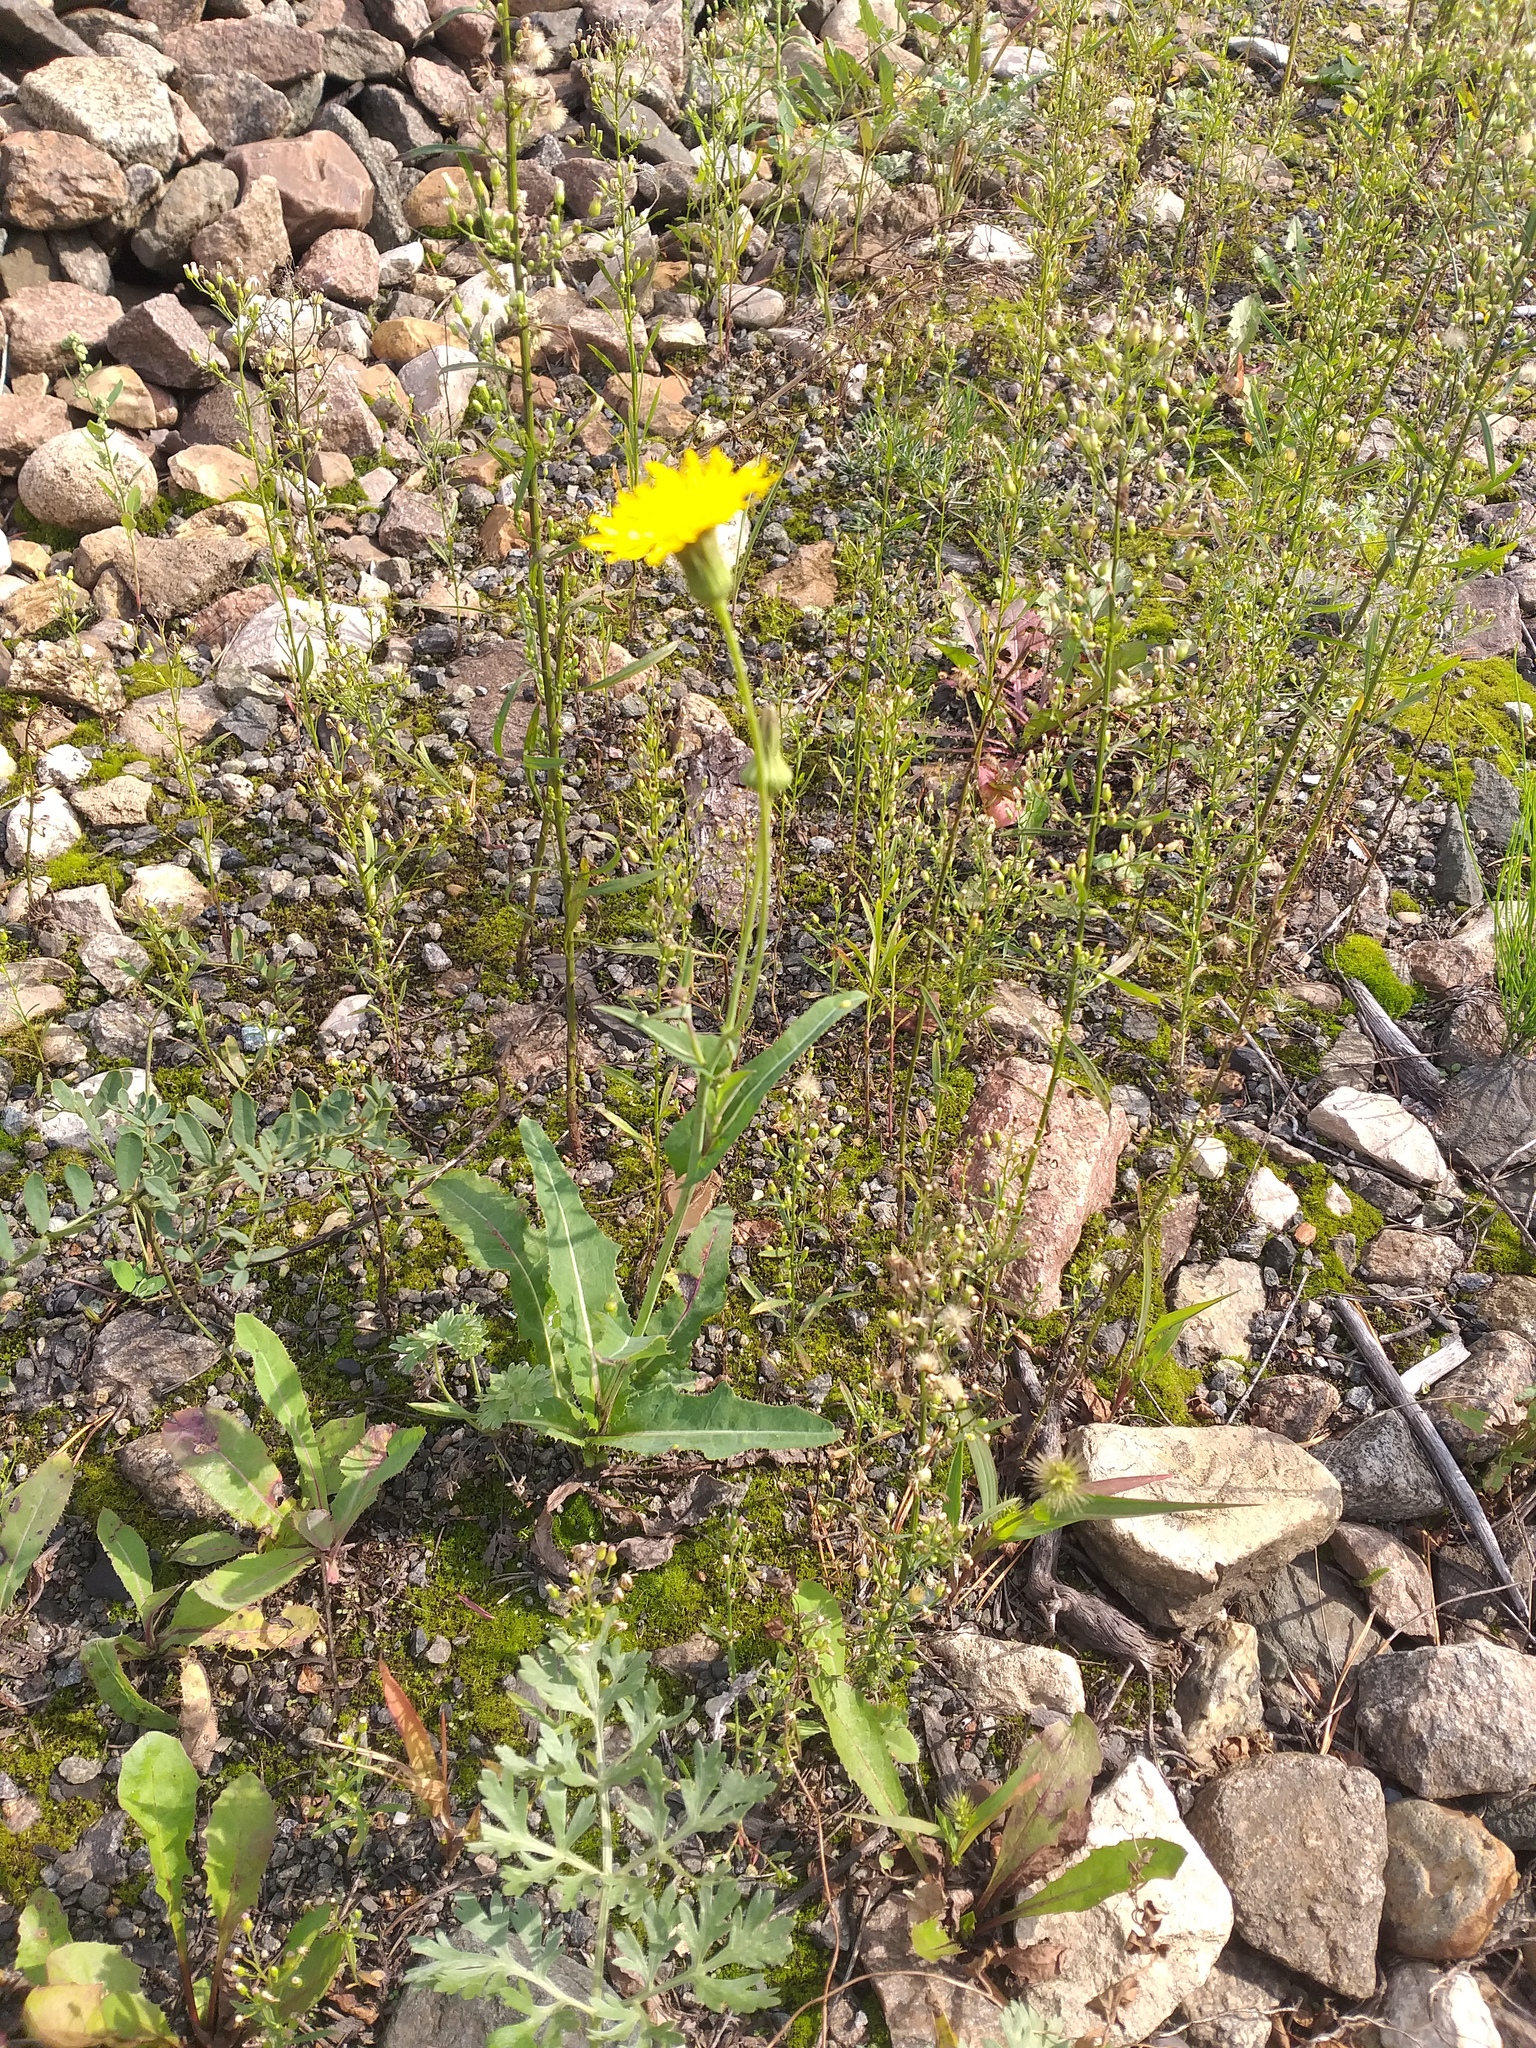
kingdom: Plantae
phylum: Tracheophyta
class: Magnoliopsida
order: Asterales
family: Asteraceae
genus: Sonchus
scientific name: Sonchus arvensis
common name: Perennial sow-thistle
